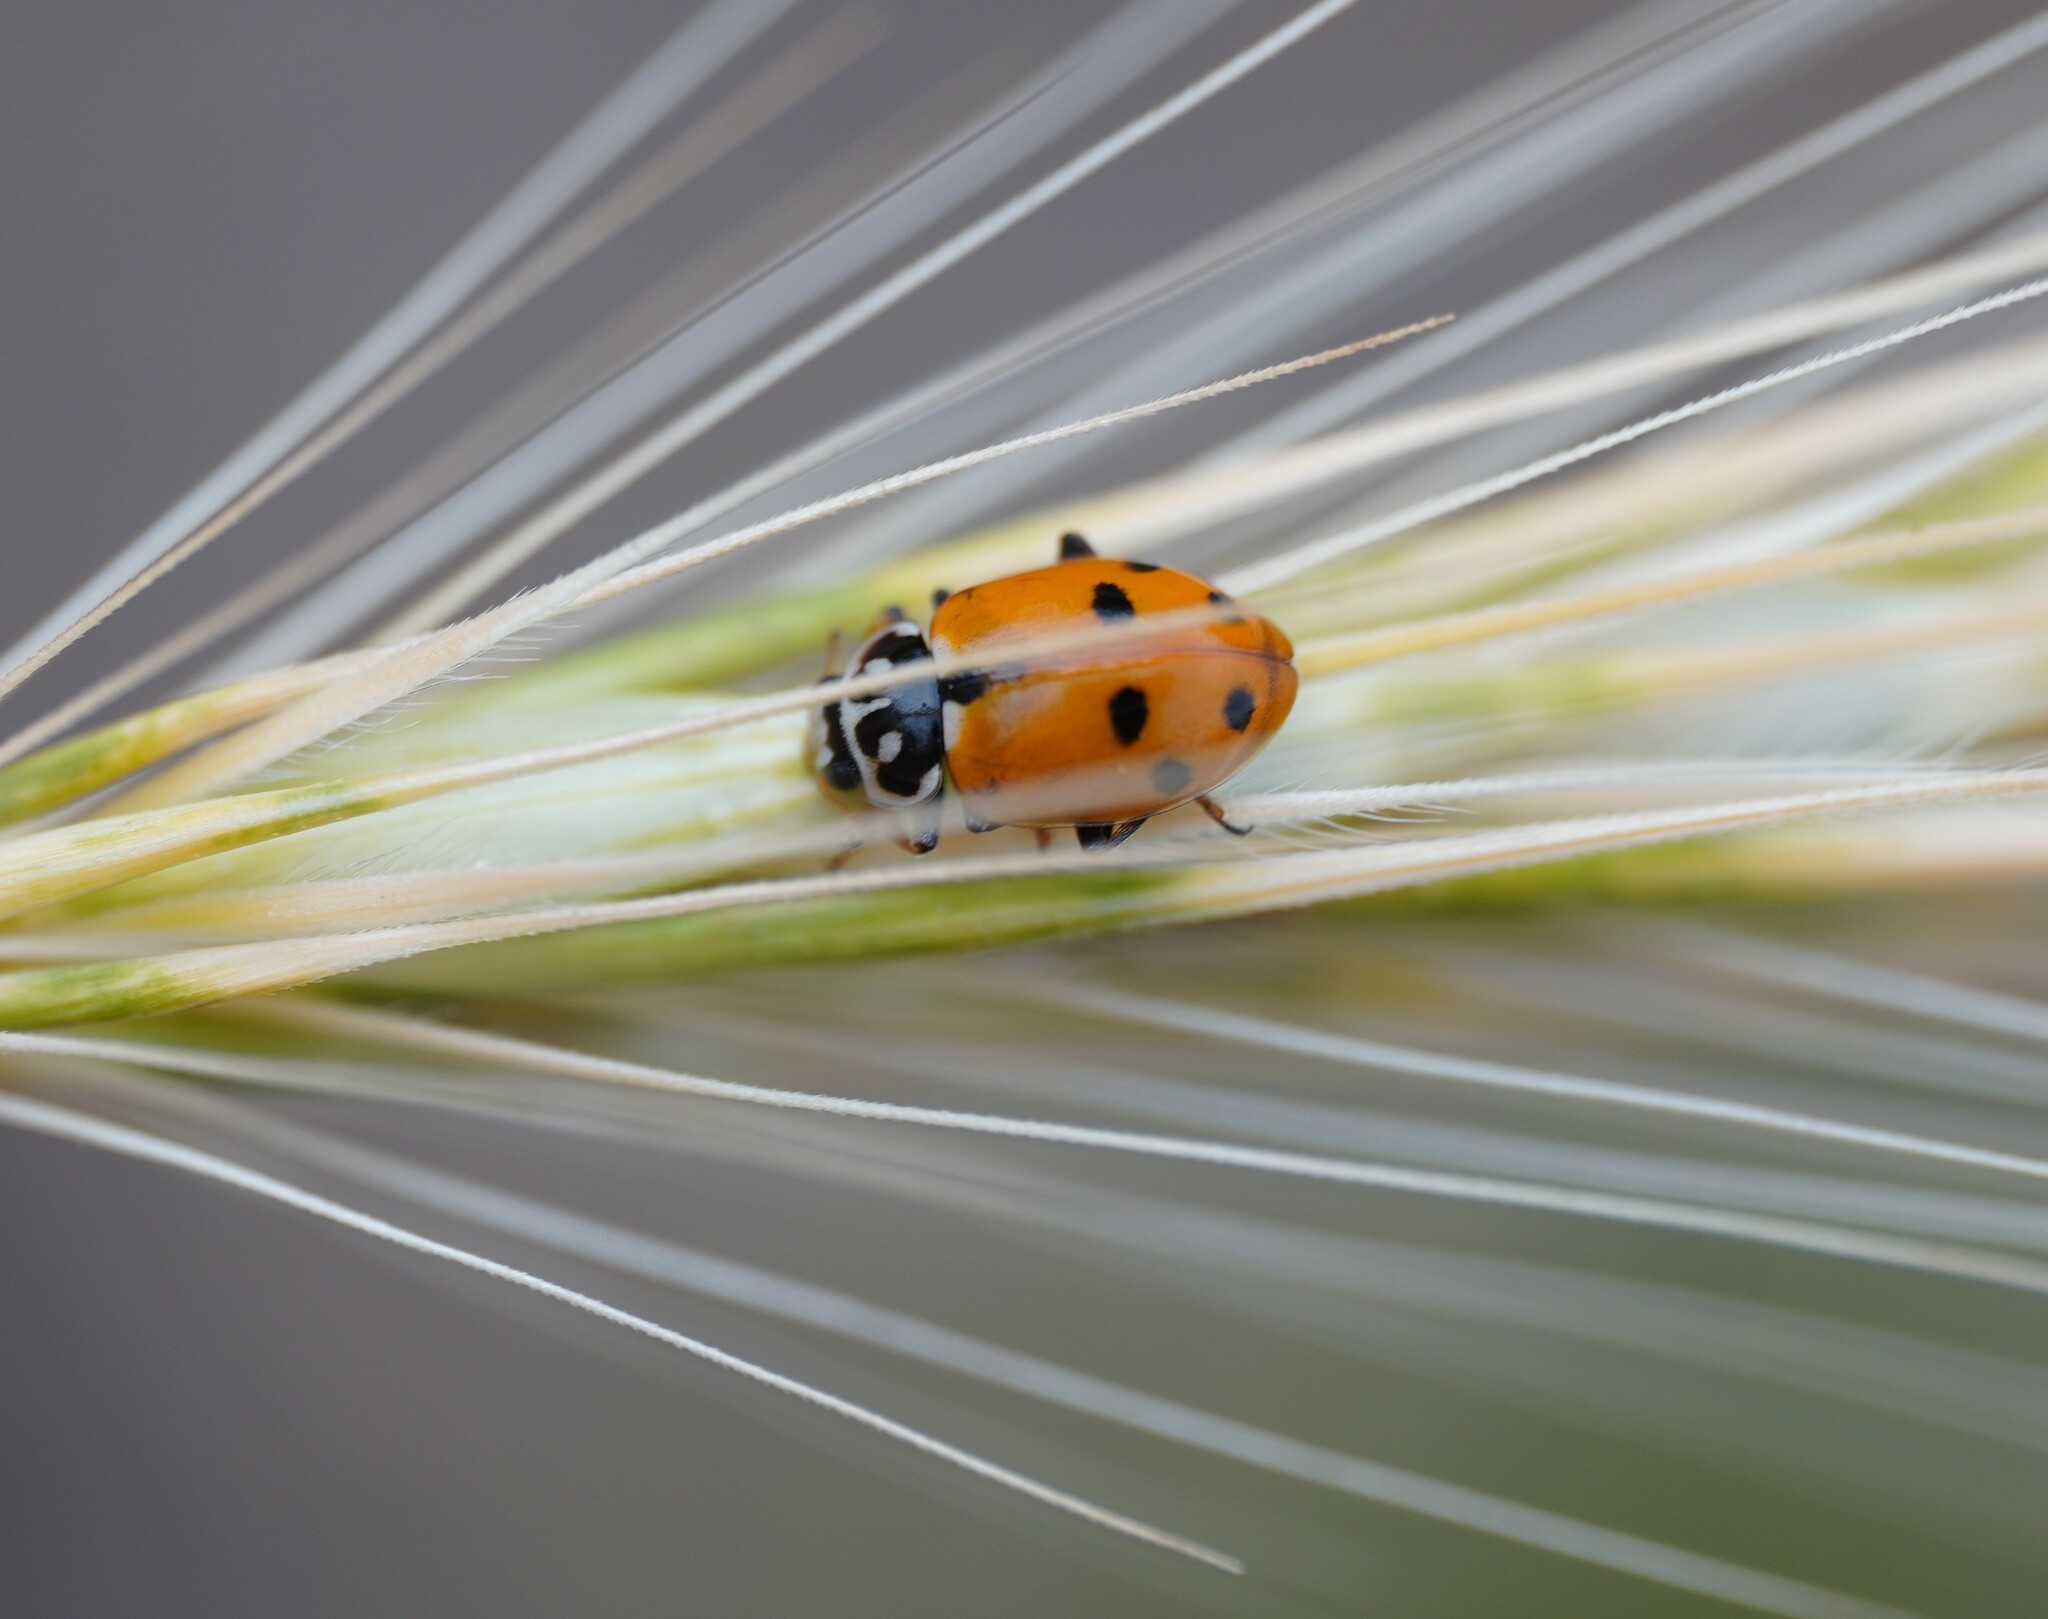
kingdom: Animalia
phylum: Arthropoda
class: Insecta
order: Coleoptera
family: Coccinellidae
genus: Hippodamia
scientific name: Hippodamia variegata
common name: Ladybird beetle
